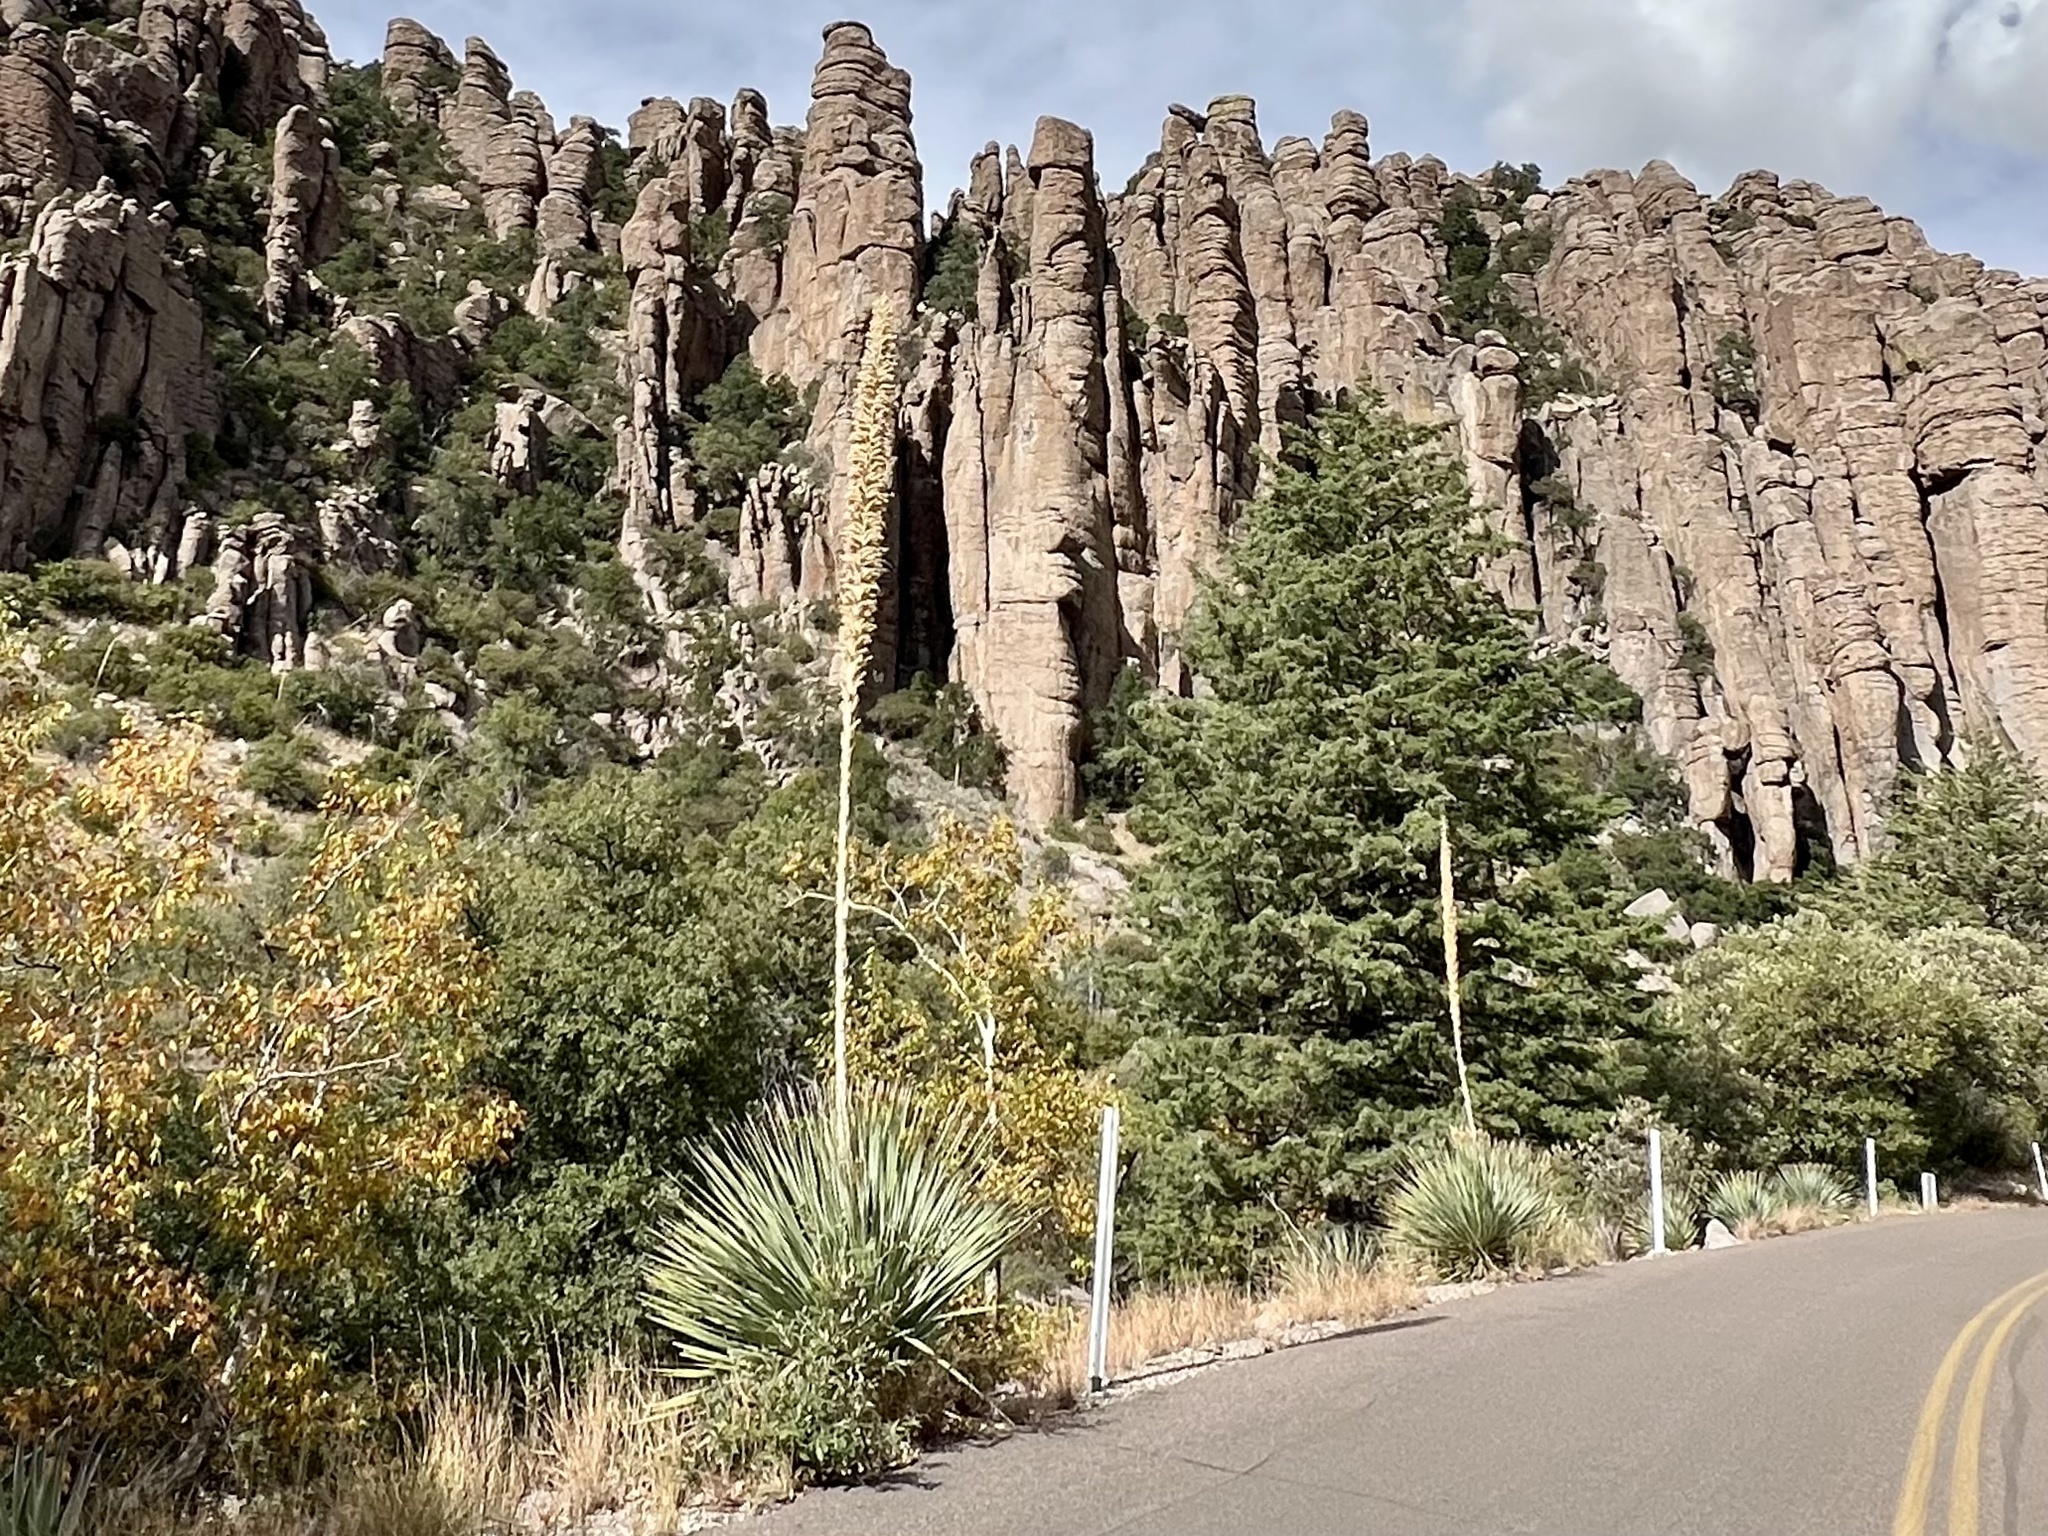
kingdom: Plantae
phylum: Tracheophyta
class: Liliopsida
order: Asparagales
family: Asparagaceae
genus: Dasylirion
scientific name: Dasylirion wheeleri
